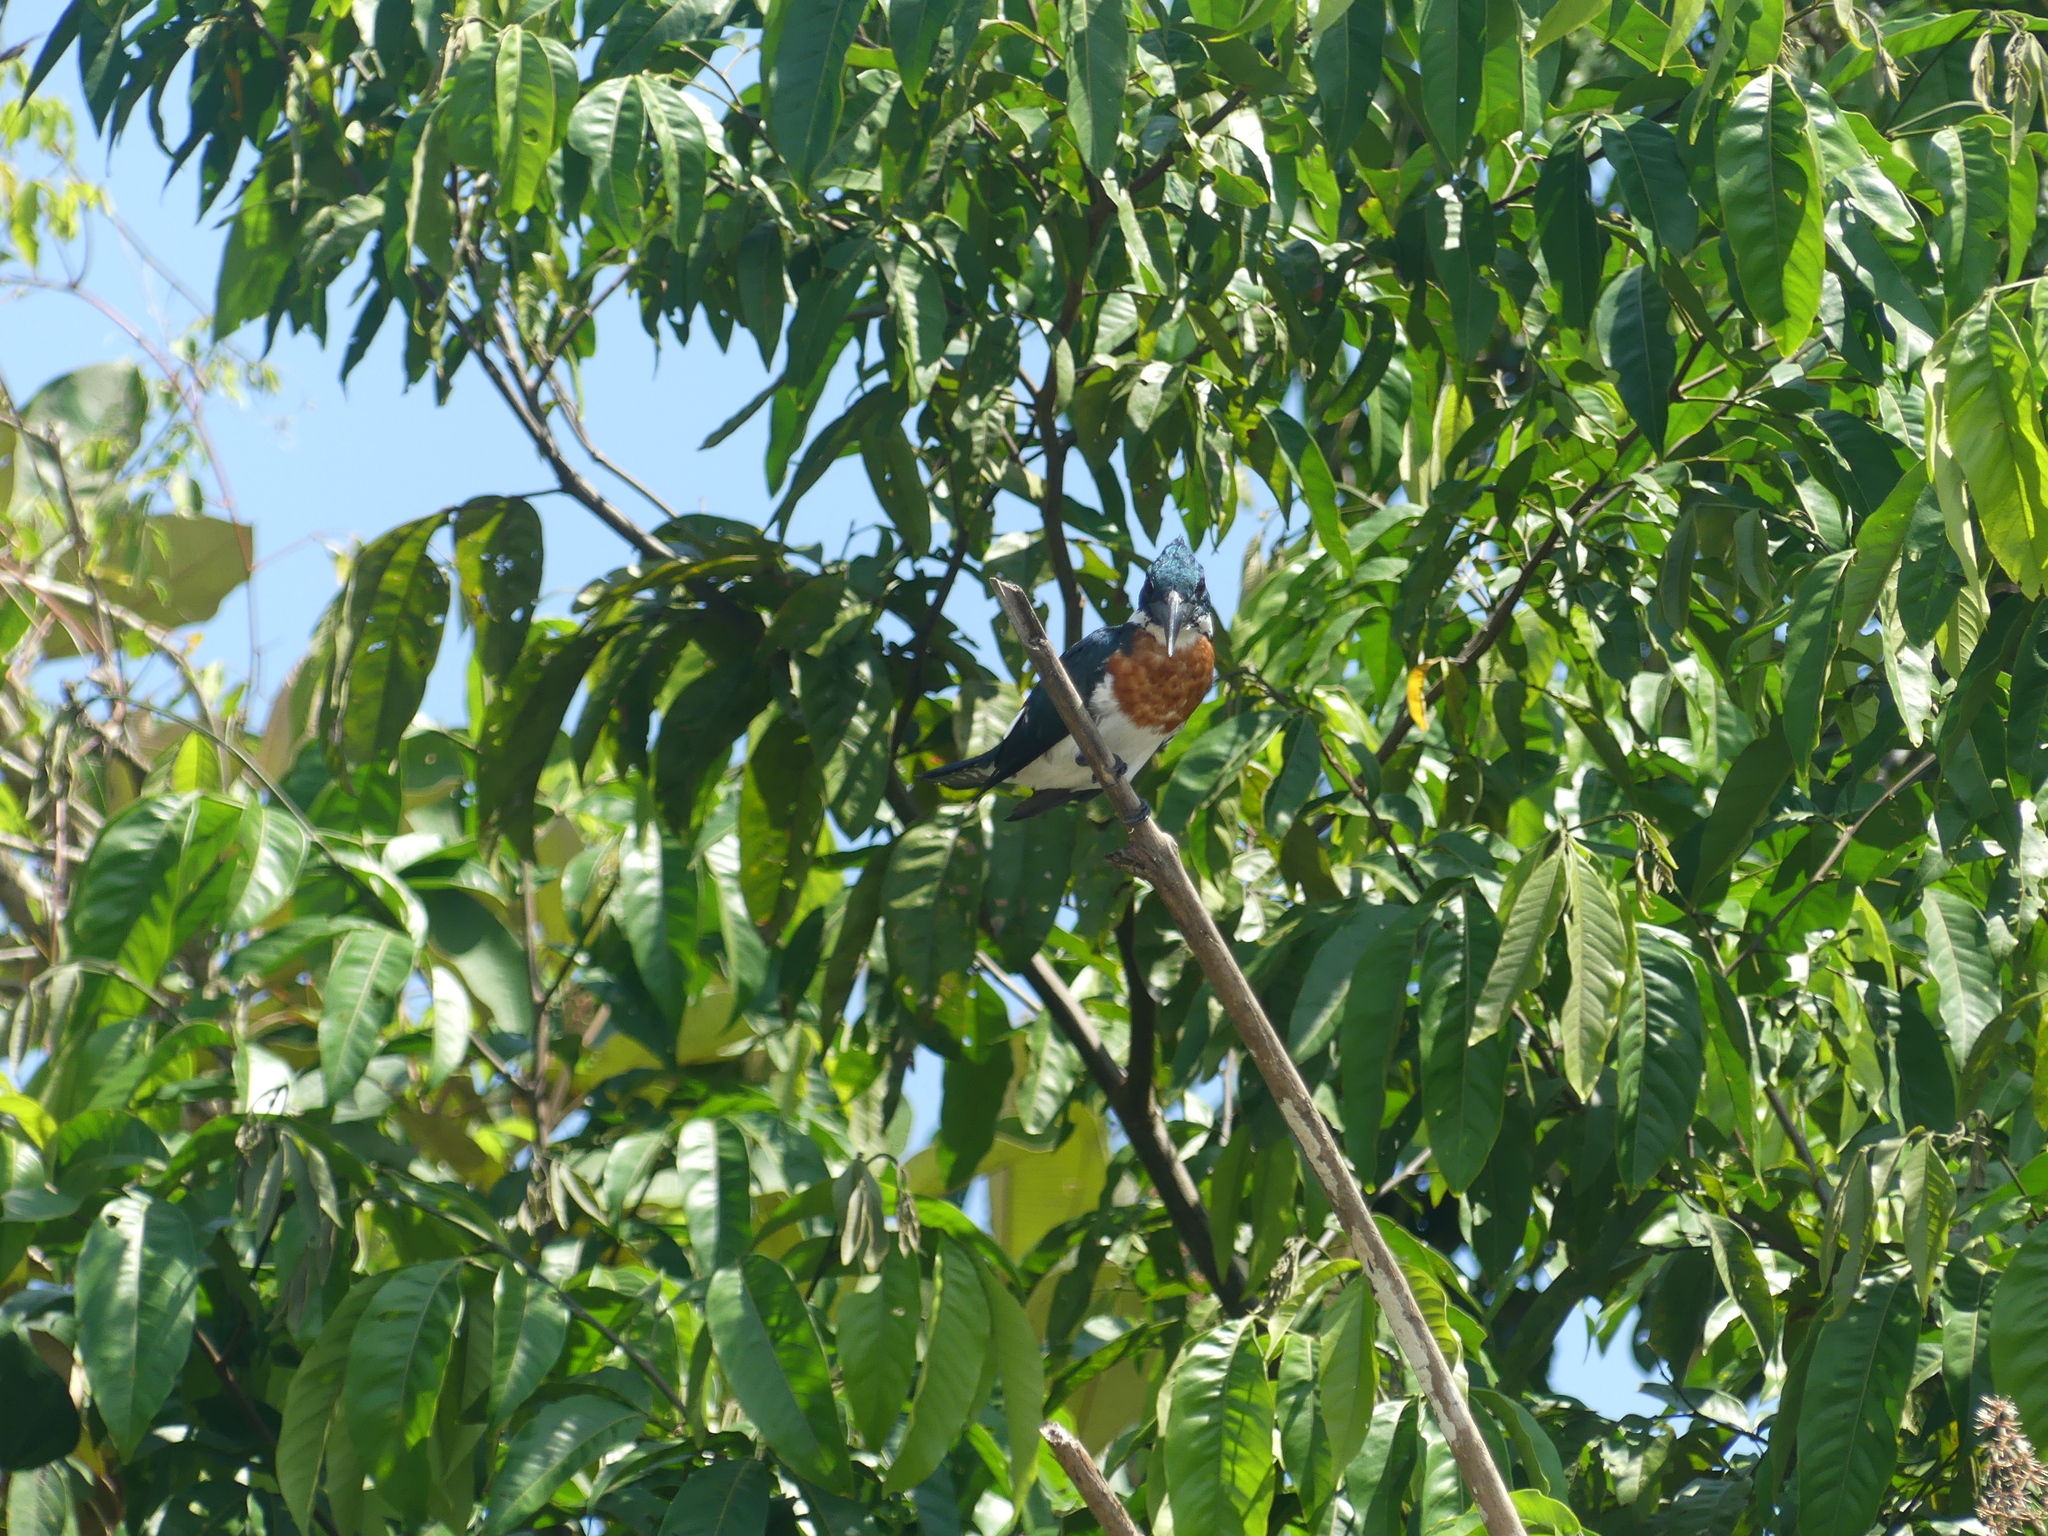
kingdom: Animalia
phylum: Chordata
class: Aves
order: Coraciiformes
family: Alcedinidae
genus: Chloroceryle
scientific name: Chloroceryle amazona
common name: Amazon kingfisher
